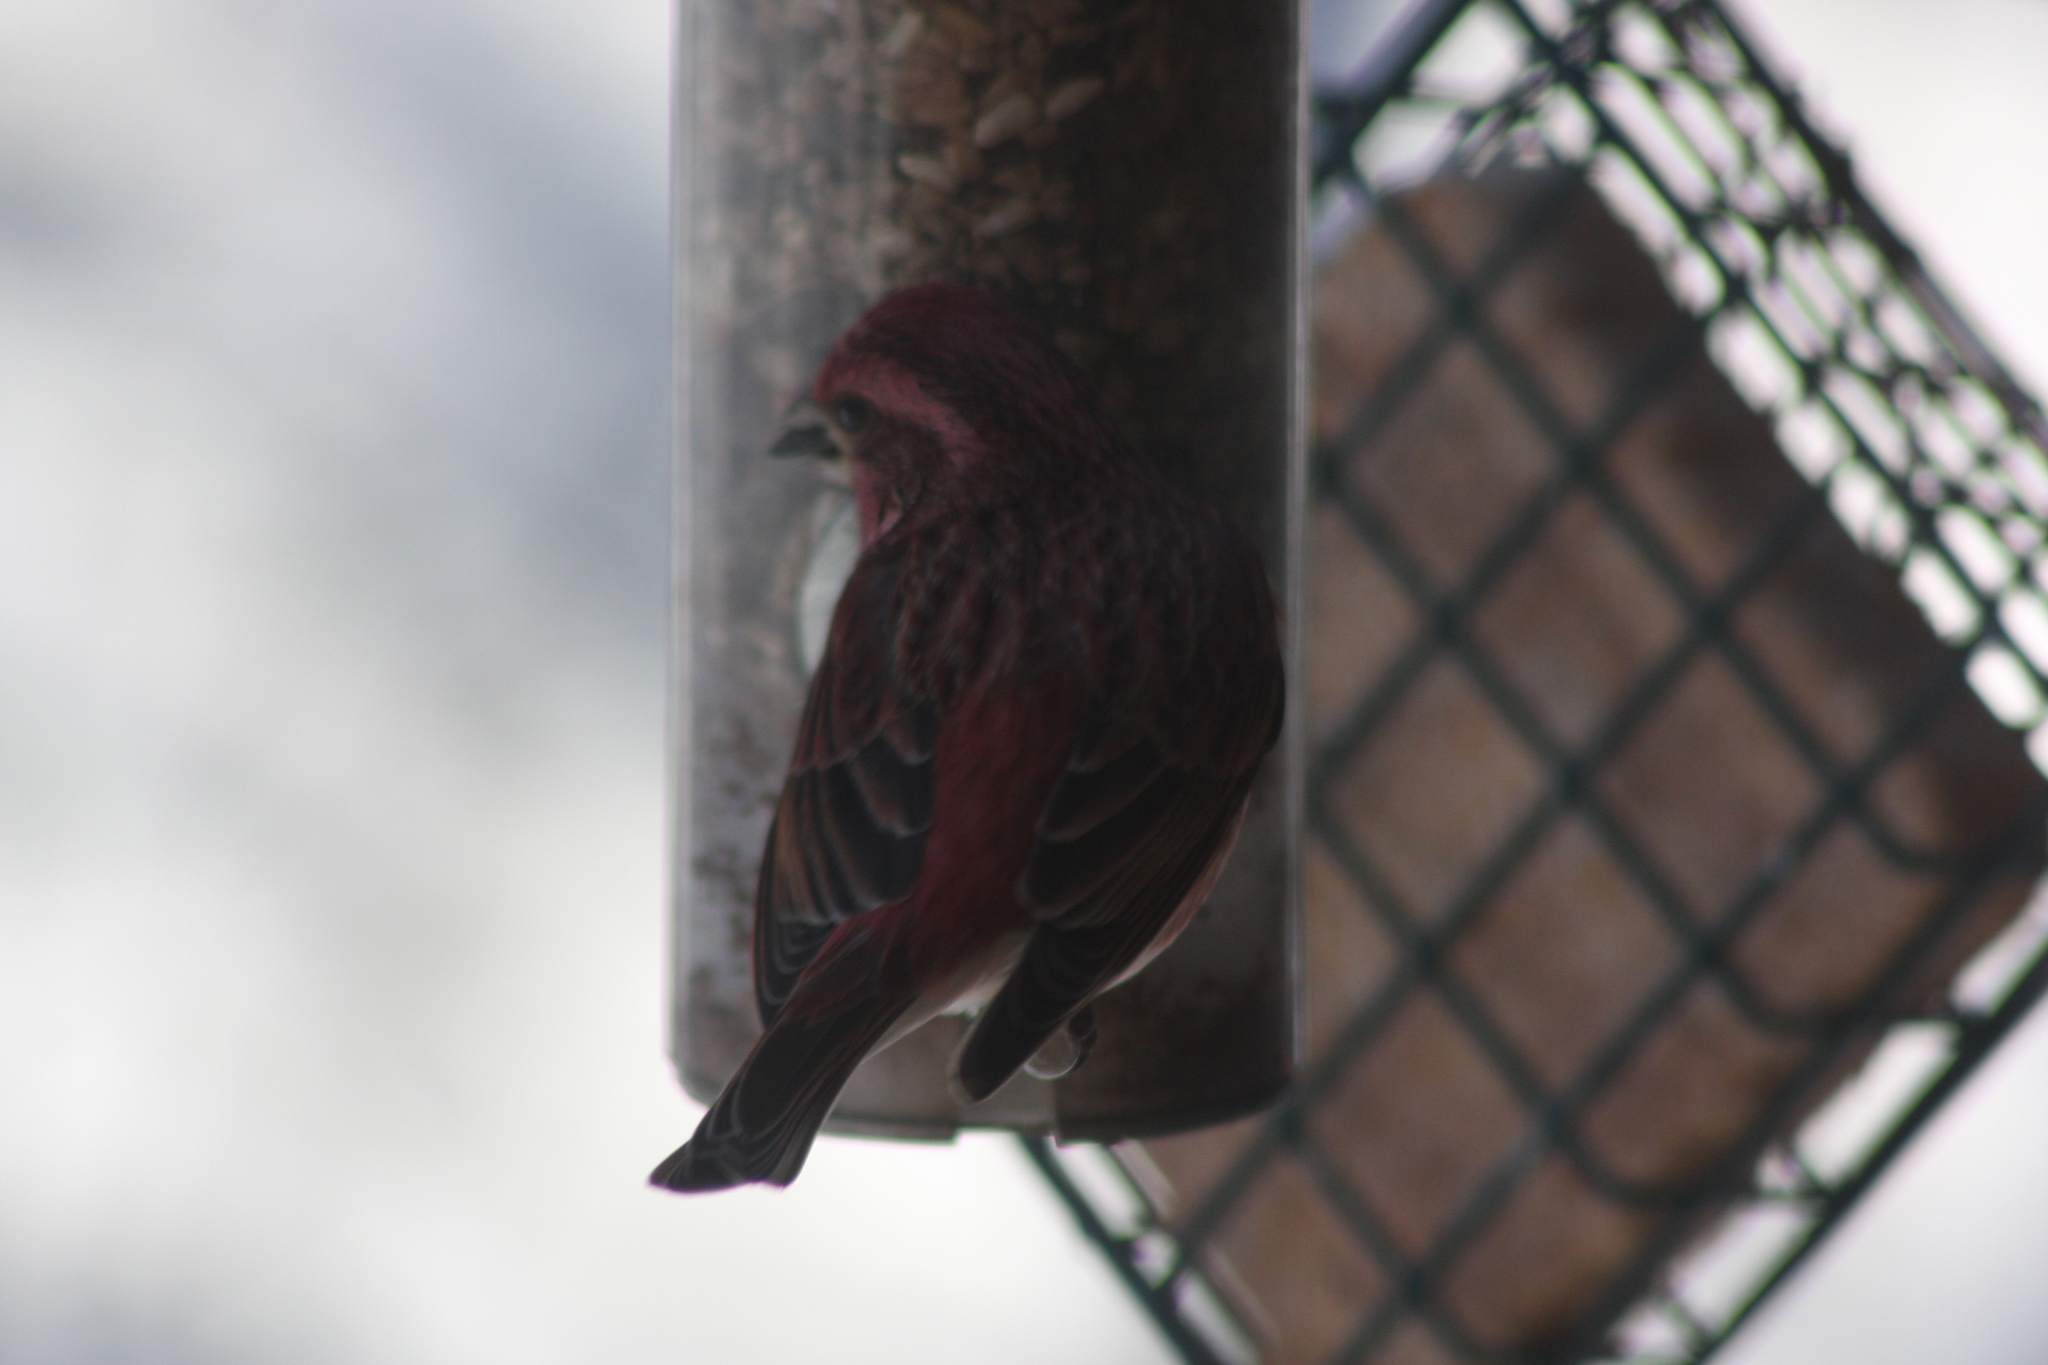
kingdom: Animalia
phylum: Chordata
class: Aves
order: Passeriformes
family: Fringillidae
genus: Haemorhous
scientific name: Haemorhous purpureus
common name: Purple finch
